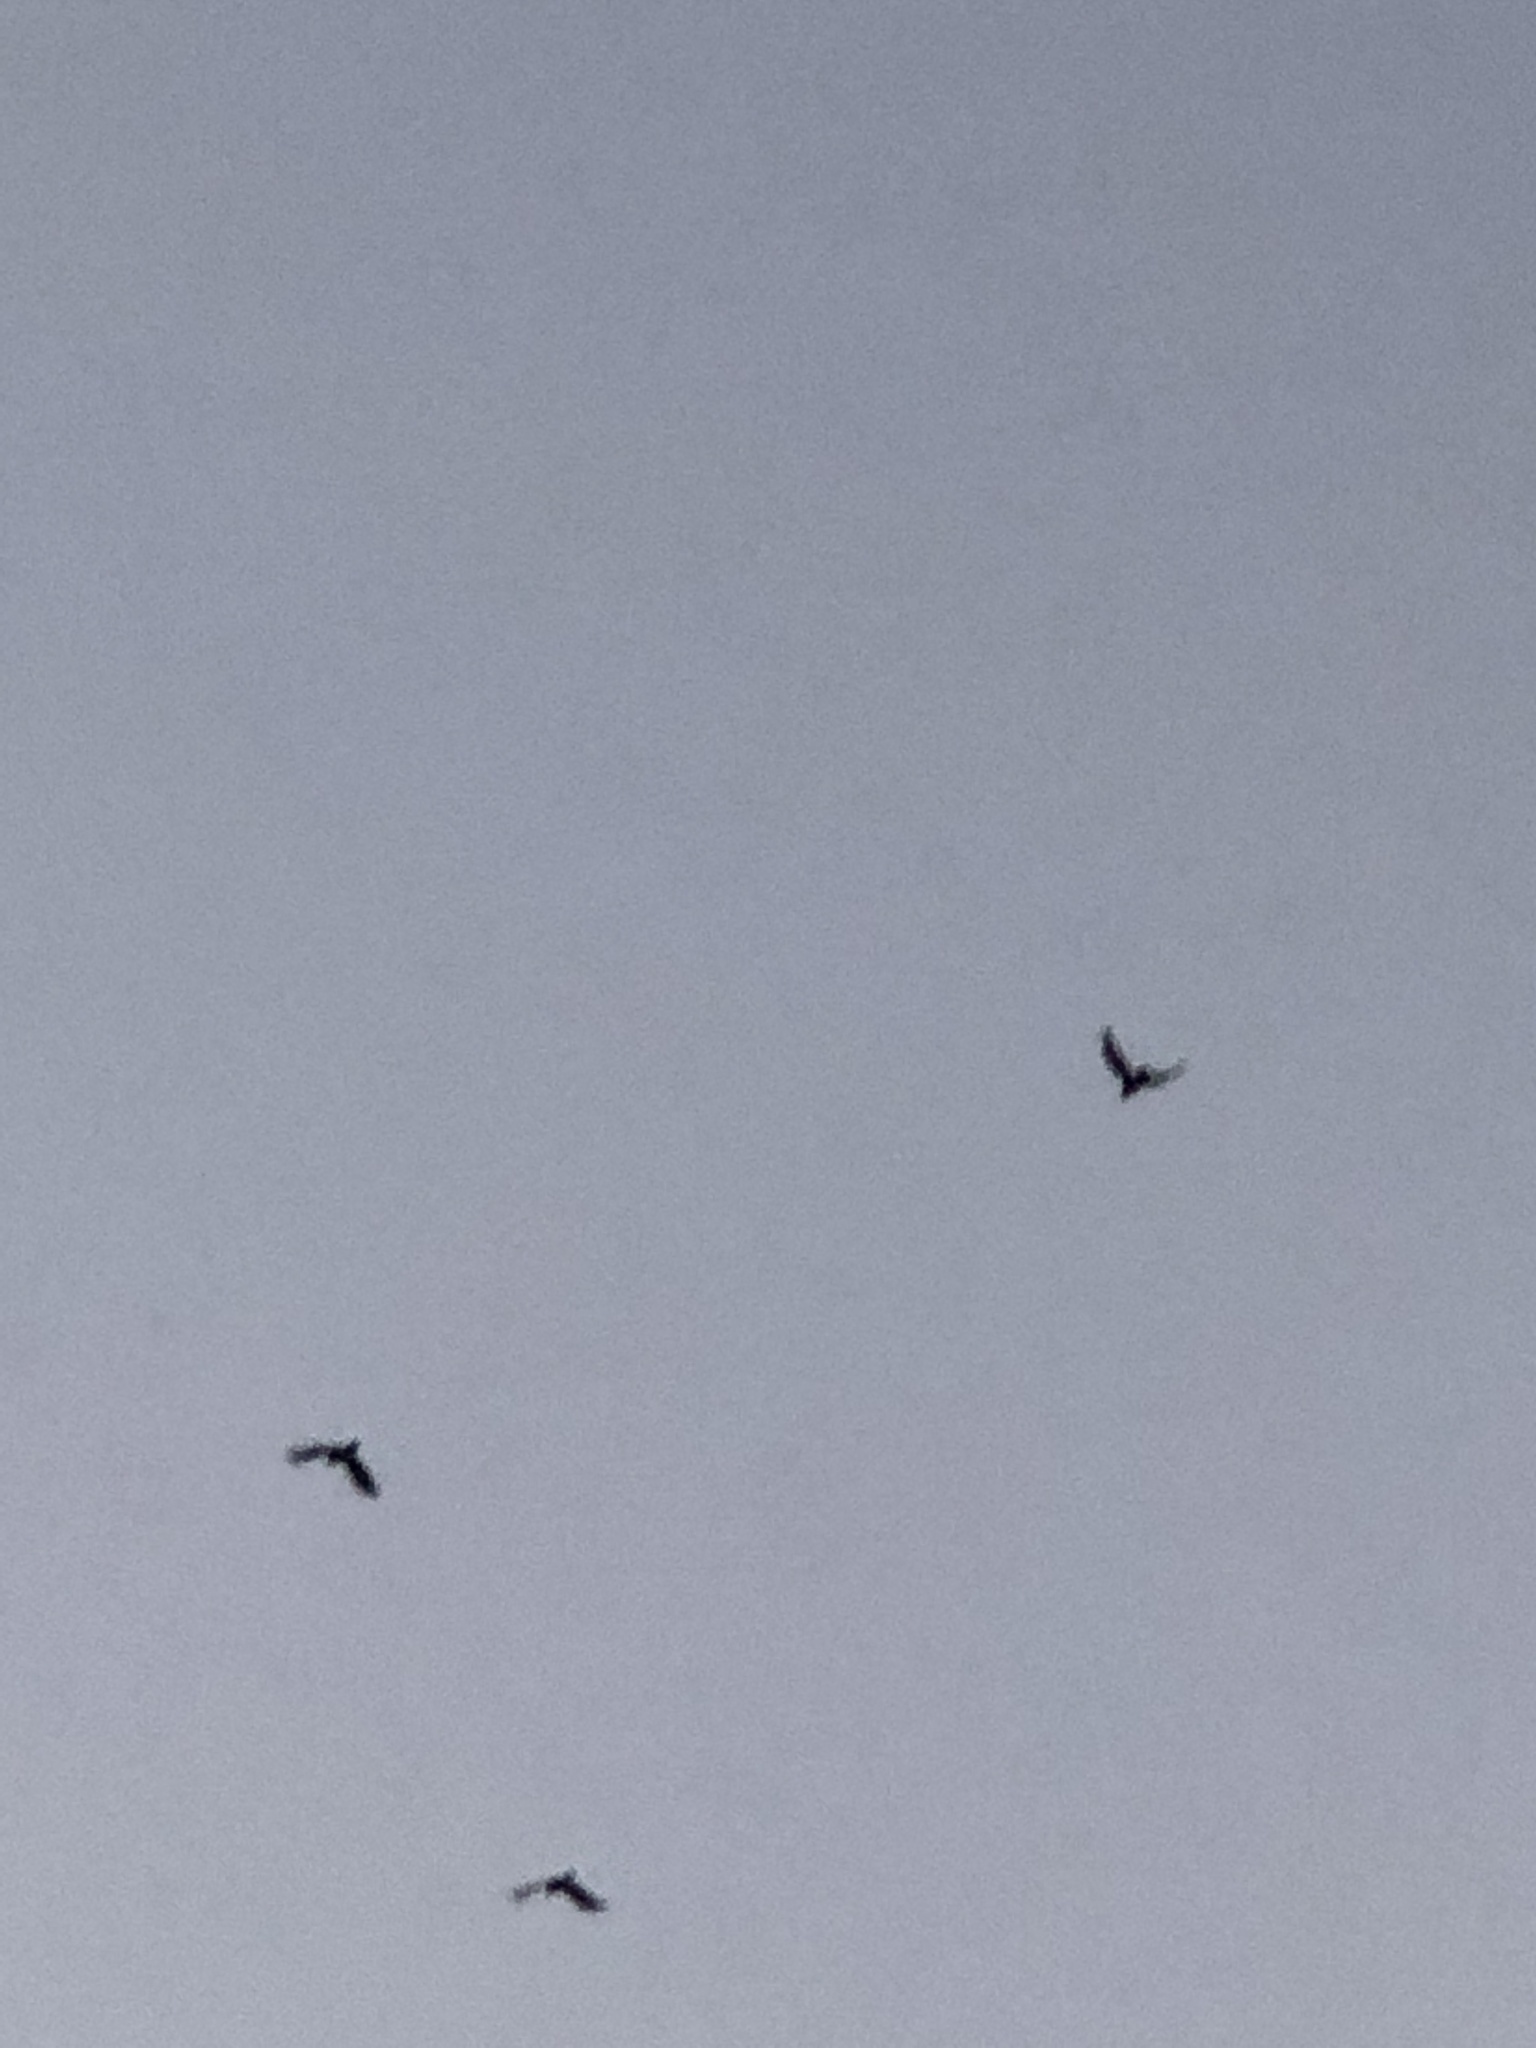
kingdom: Animalia
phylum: Chordata
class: Aves
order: Passeriformes
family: Corvidae
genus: Corvus
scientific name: Corvus brachyrhynchos
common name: American crow
